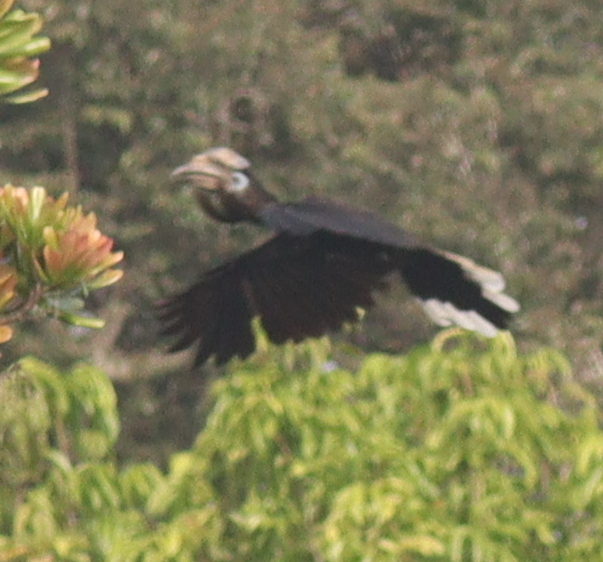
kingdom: Animalia
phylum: Chordata
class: Aves
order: Bucerotiformes
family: Bucerotidae
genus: Ceratogymna
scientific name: Ceratogymna atrata
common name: Black-casqued hornbill
